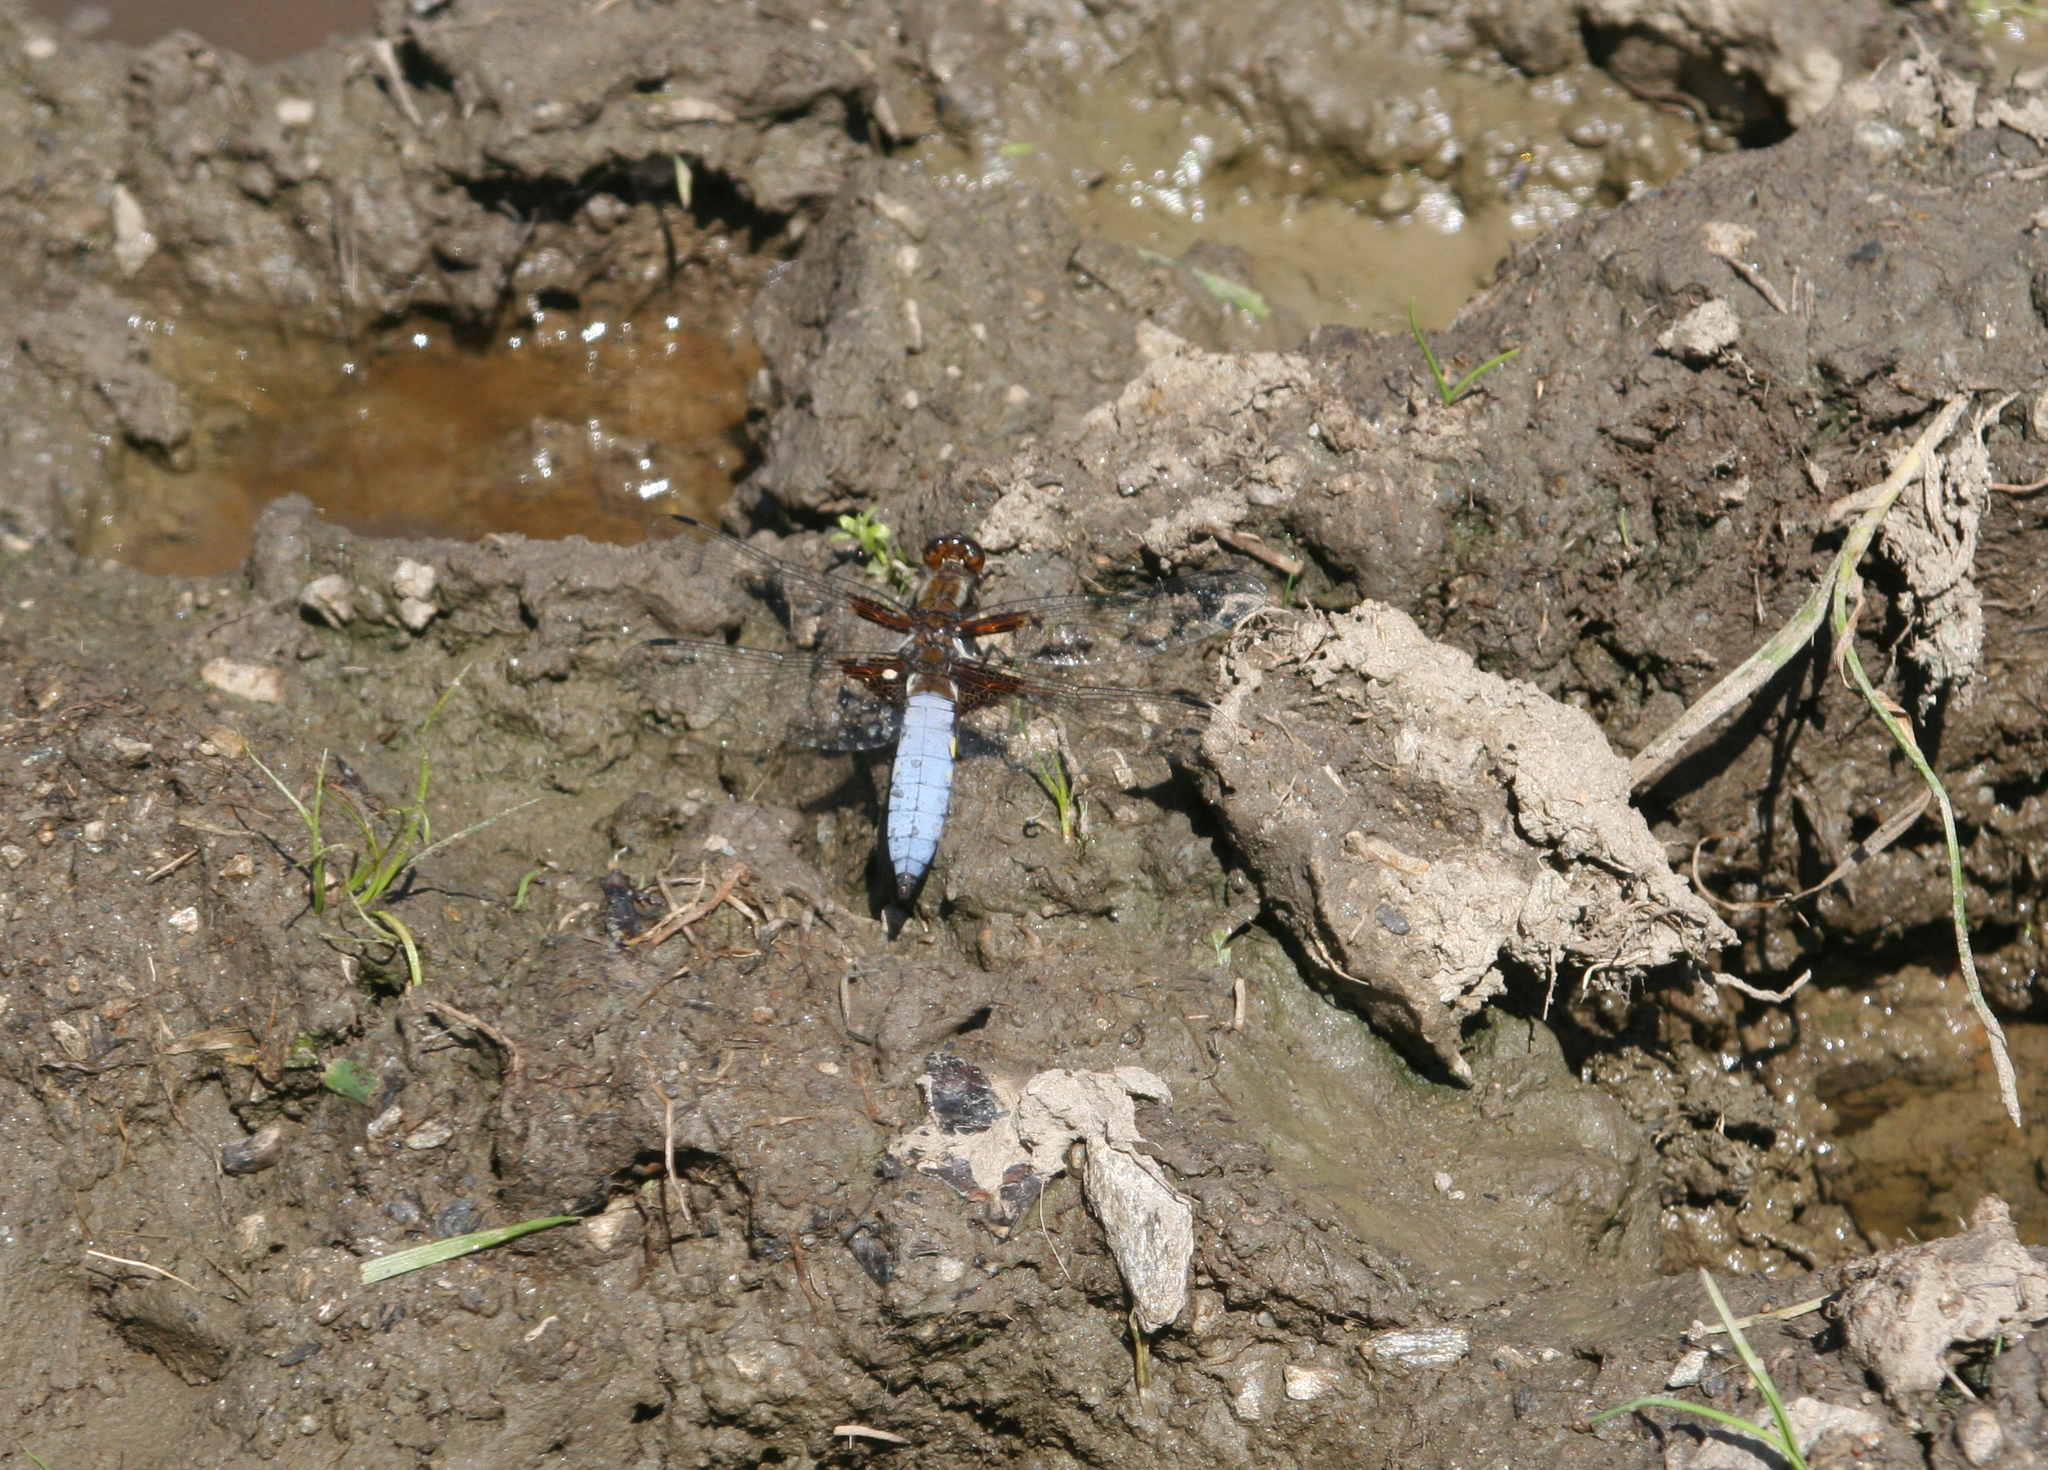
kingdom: Animalia
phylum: Arthropoda
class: Insecta
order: Odonata
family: Libellulidae
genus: Libellula
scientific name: Libellula depressa
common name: Broad-bodied chaser
